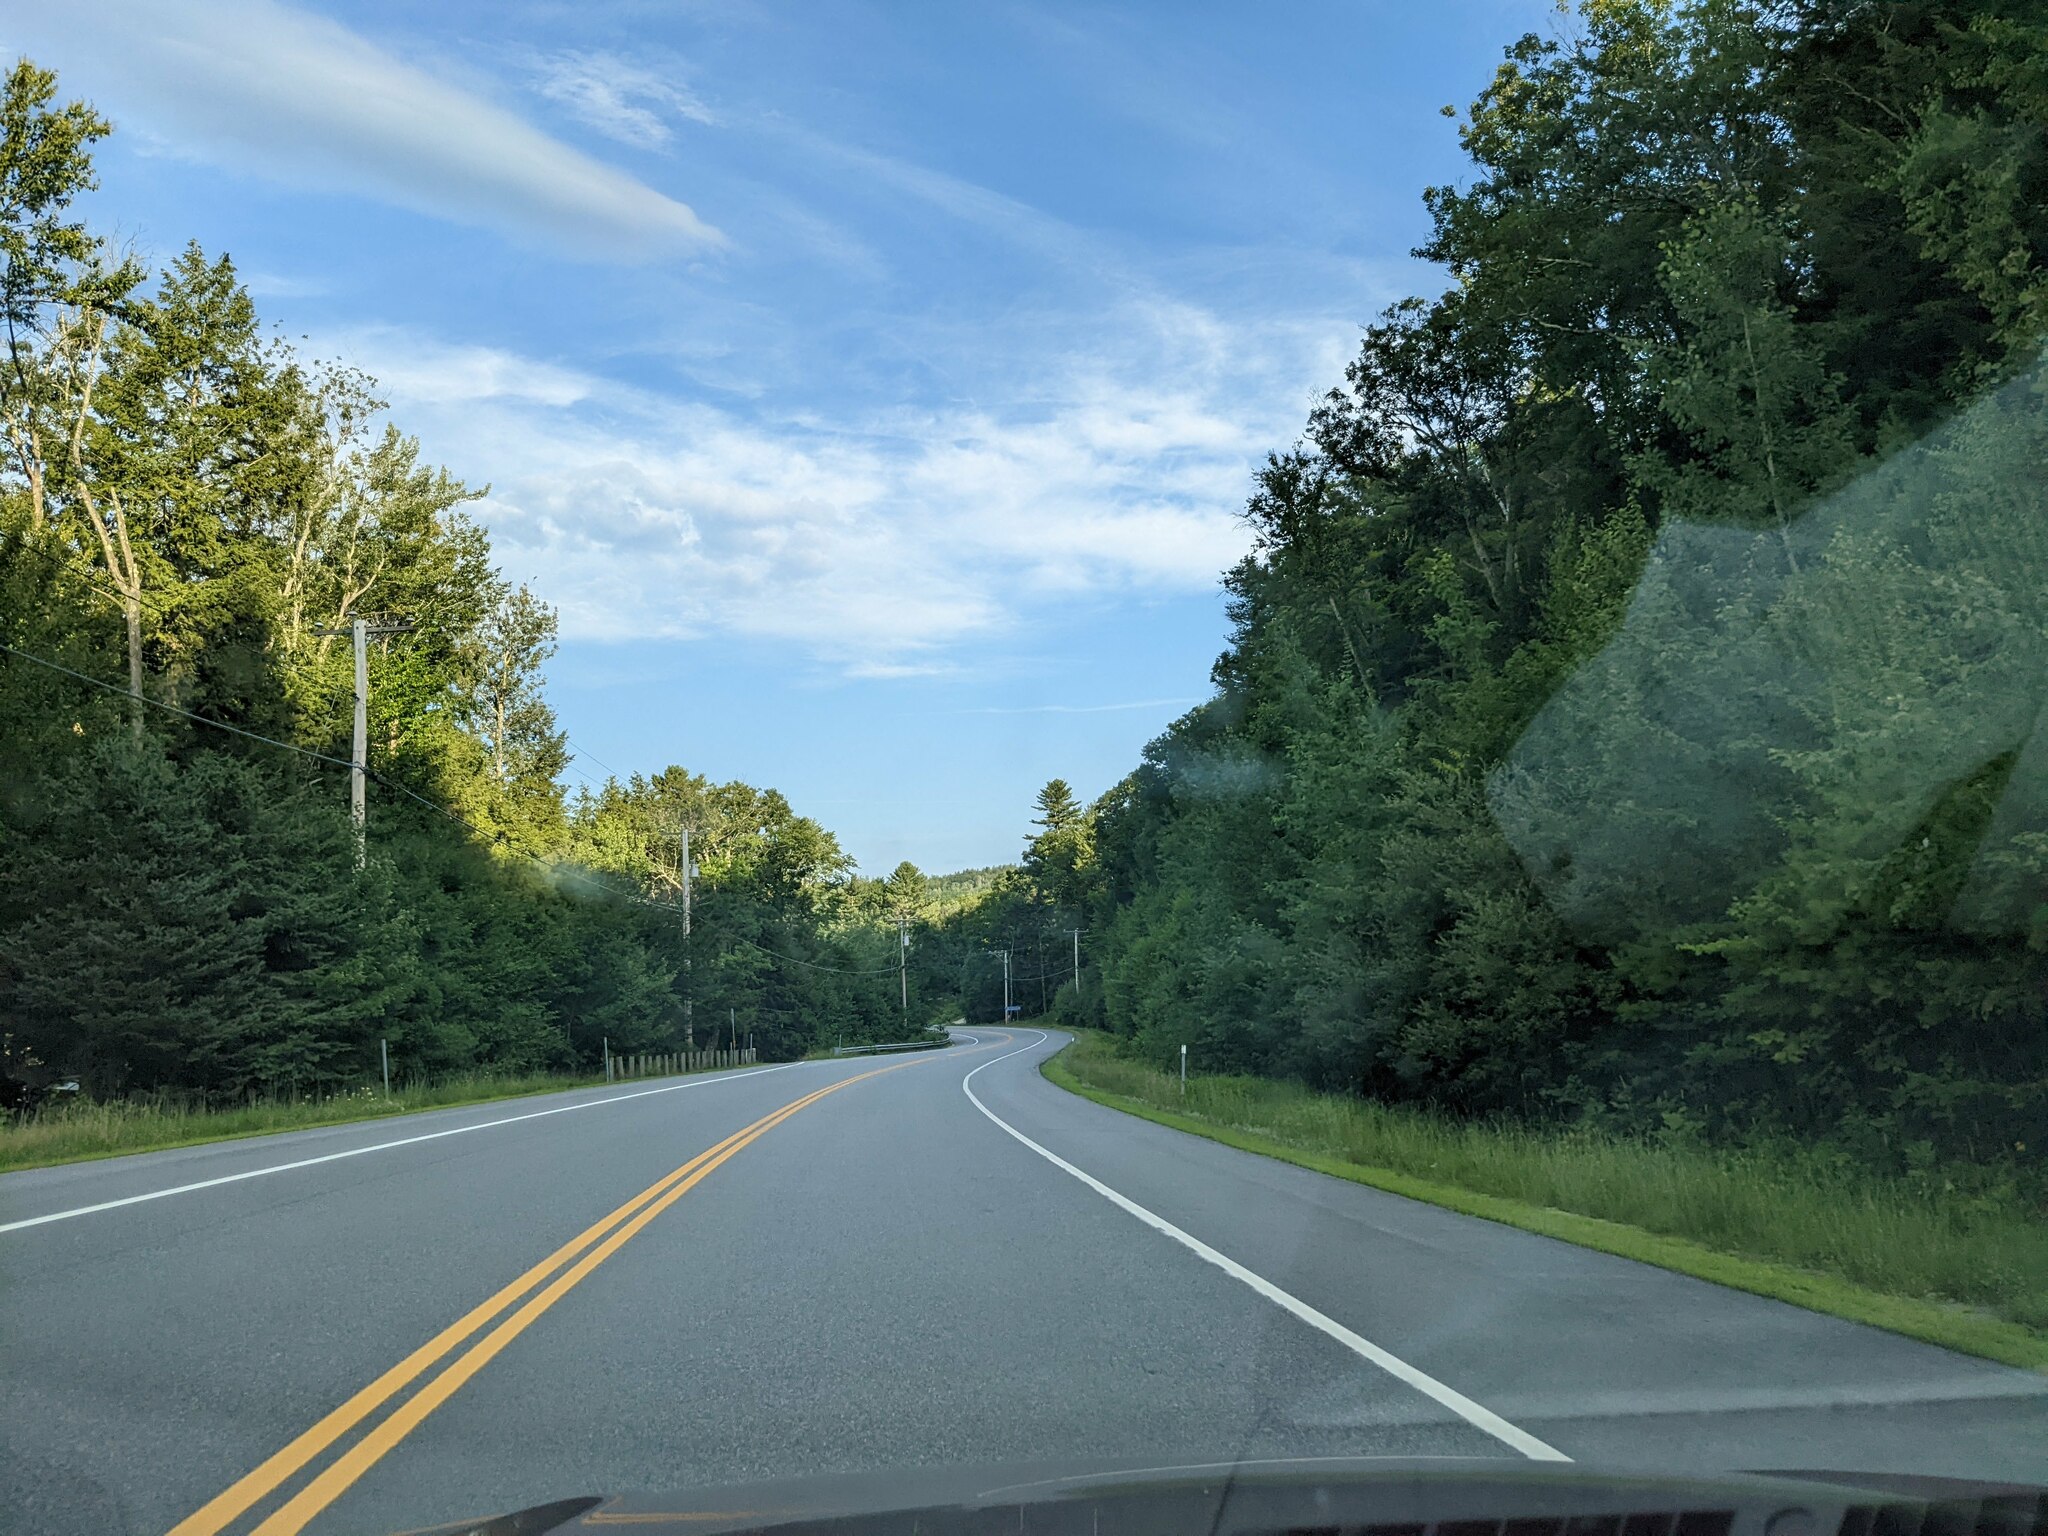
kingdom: Plantae
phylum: Tracheophyta
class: Pinopsida
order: Pinales
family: Pinaceae
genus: Pinus
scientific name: Pinus strobus
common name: Weymouth pine
